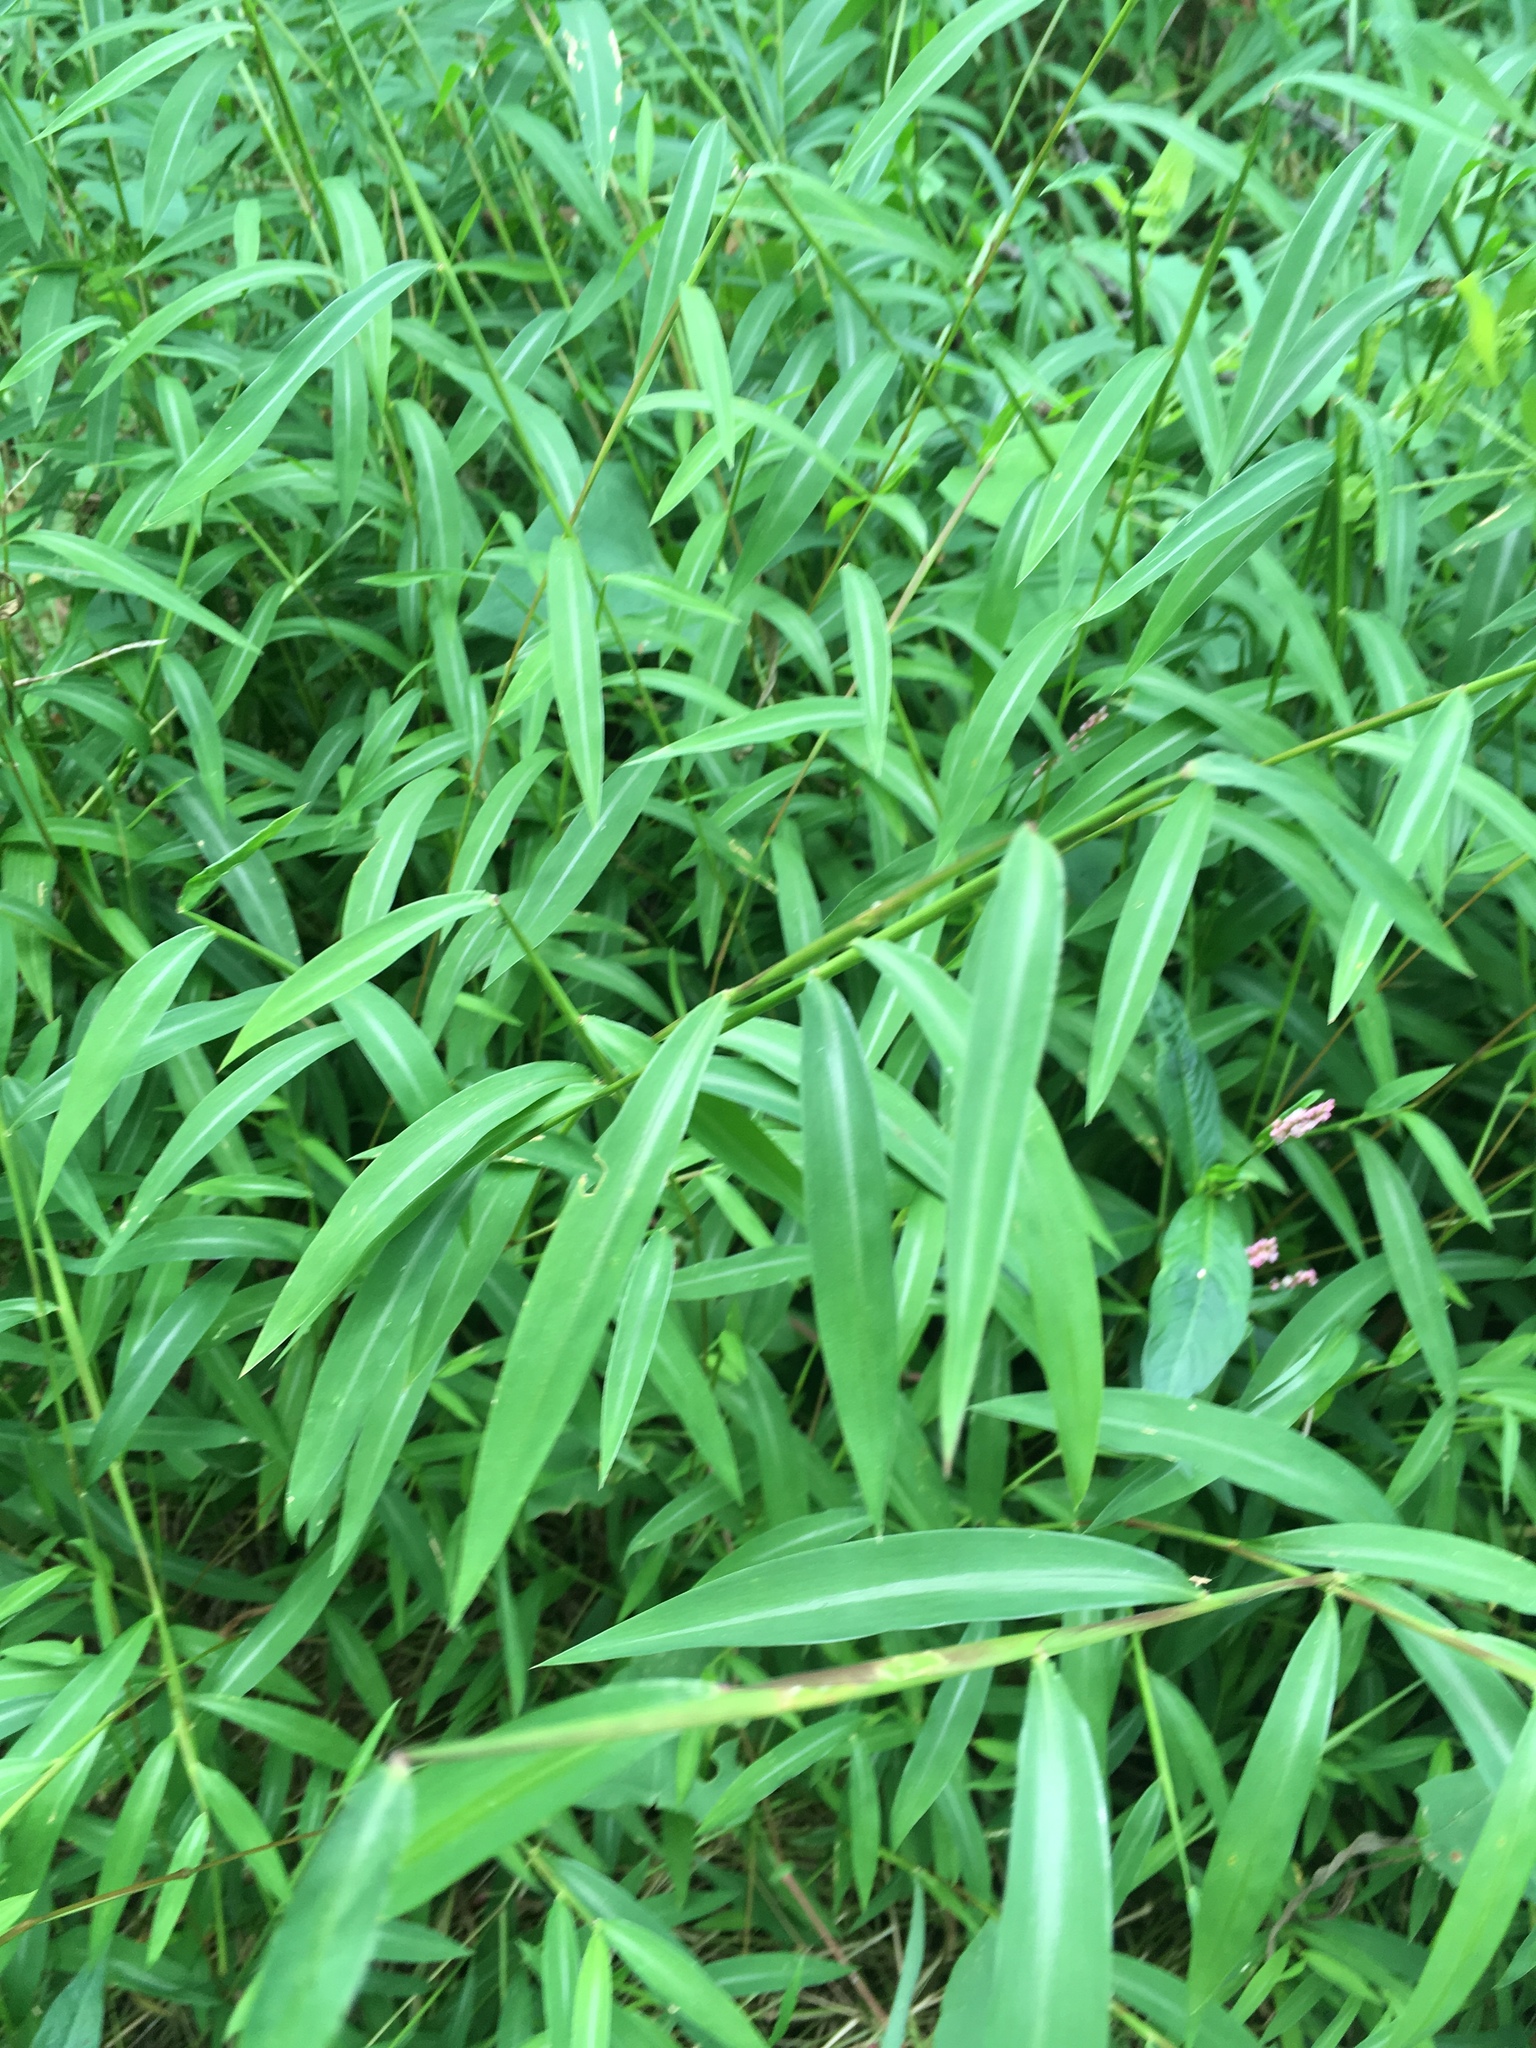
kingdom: Plantae
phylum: Tracheophyta
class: Liliopsida
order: Poales
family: Poaceae
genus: Microstegium
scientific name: Microstegium vimineum
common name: Japanese stiltgrass
